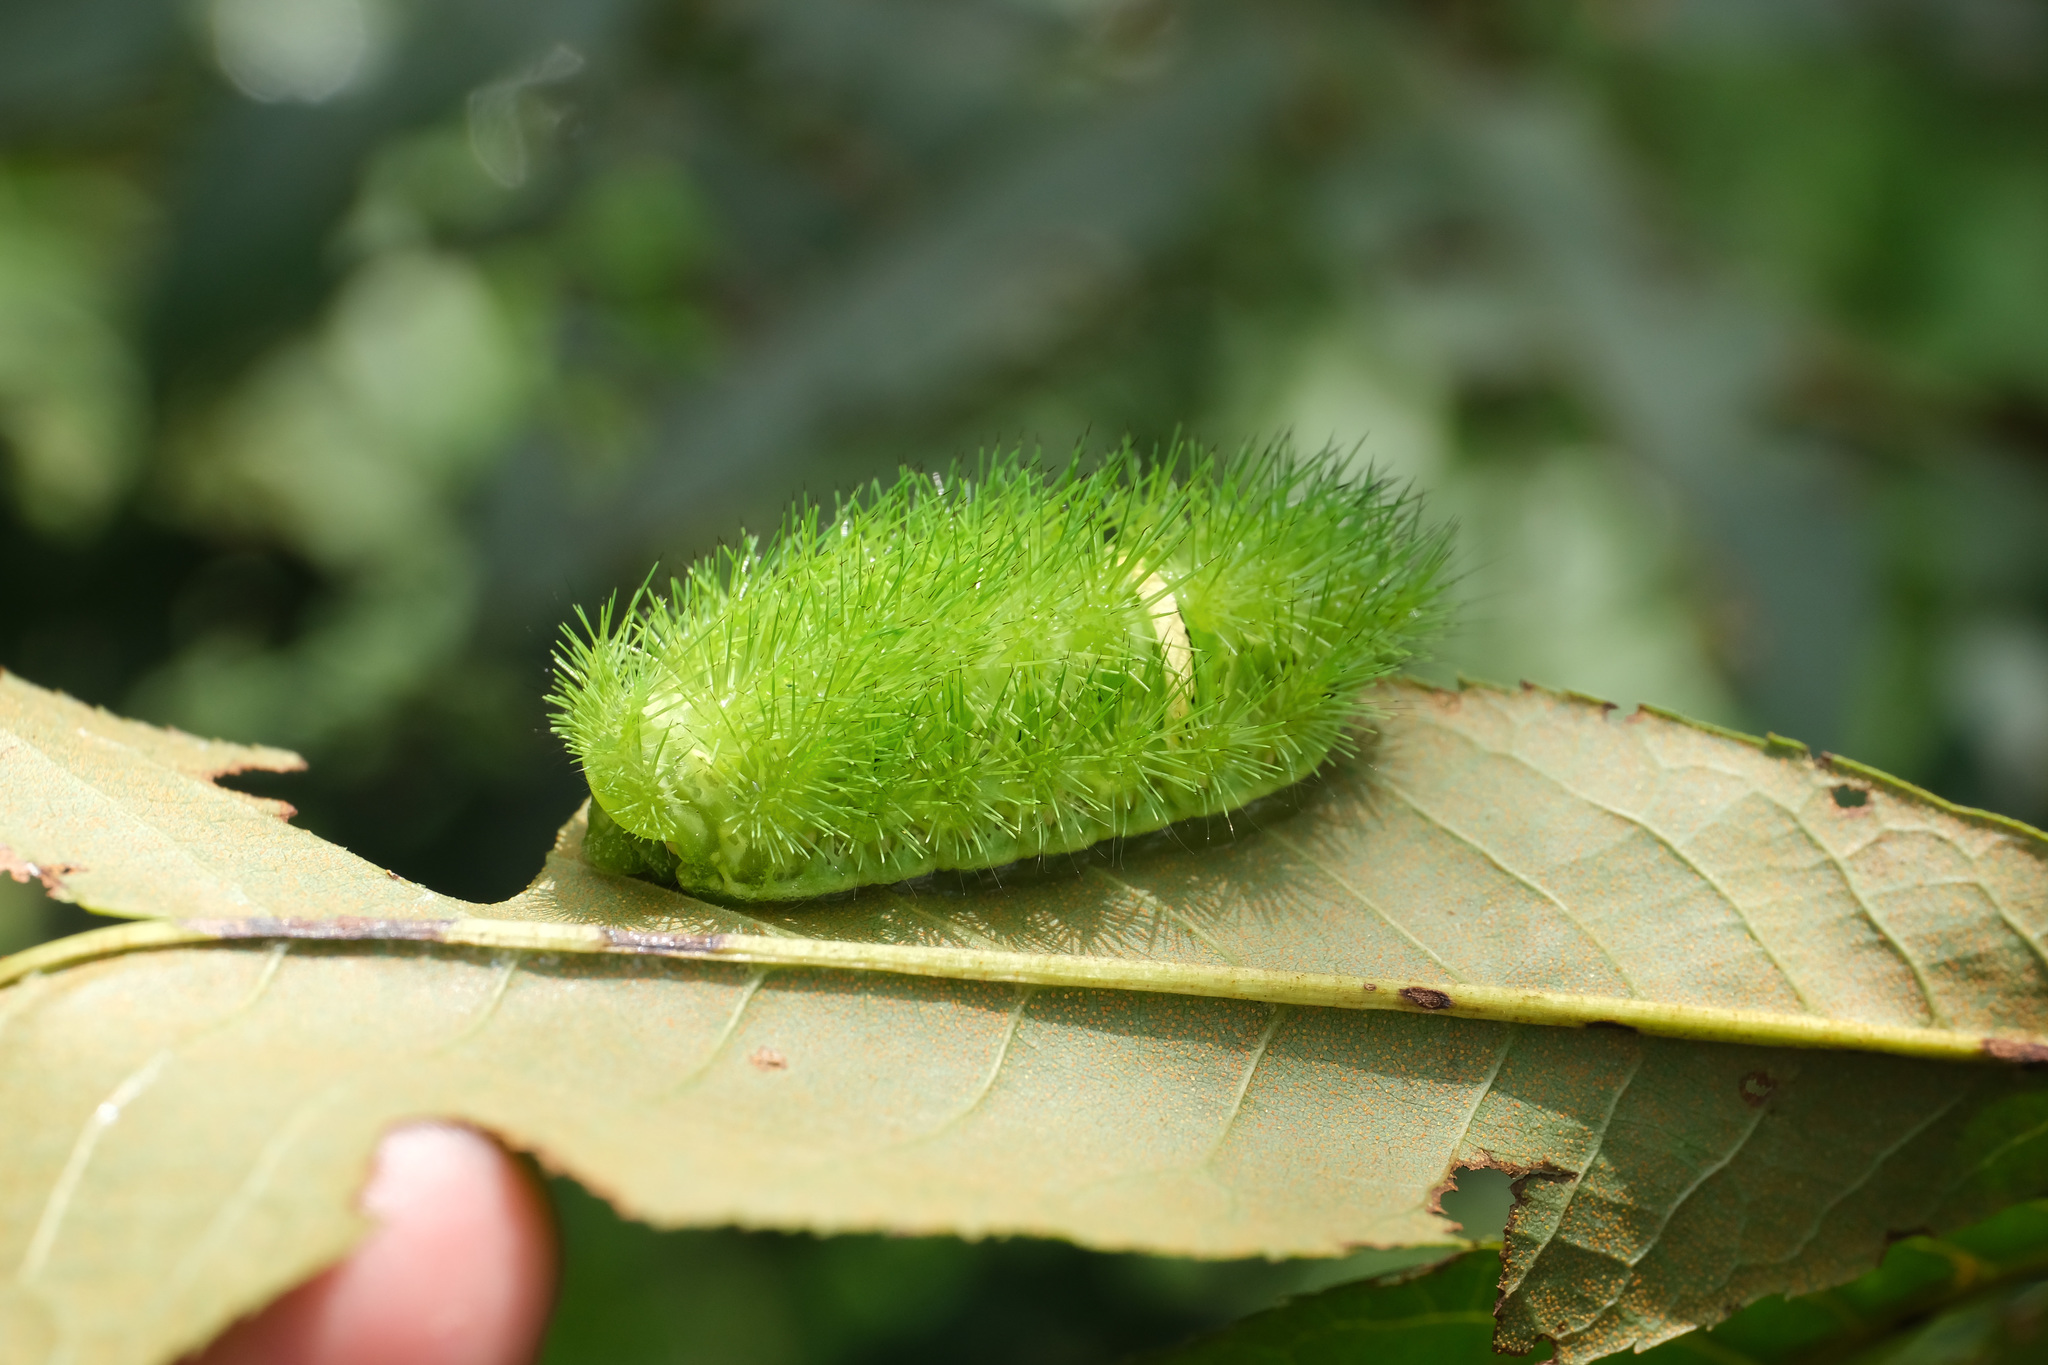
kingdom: Animalia
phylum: Arthropoda
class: Insecta
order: Lepidoptera
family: Limacodidae
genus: Scopelodes
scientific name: Scopelodes kwangtungensis
